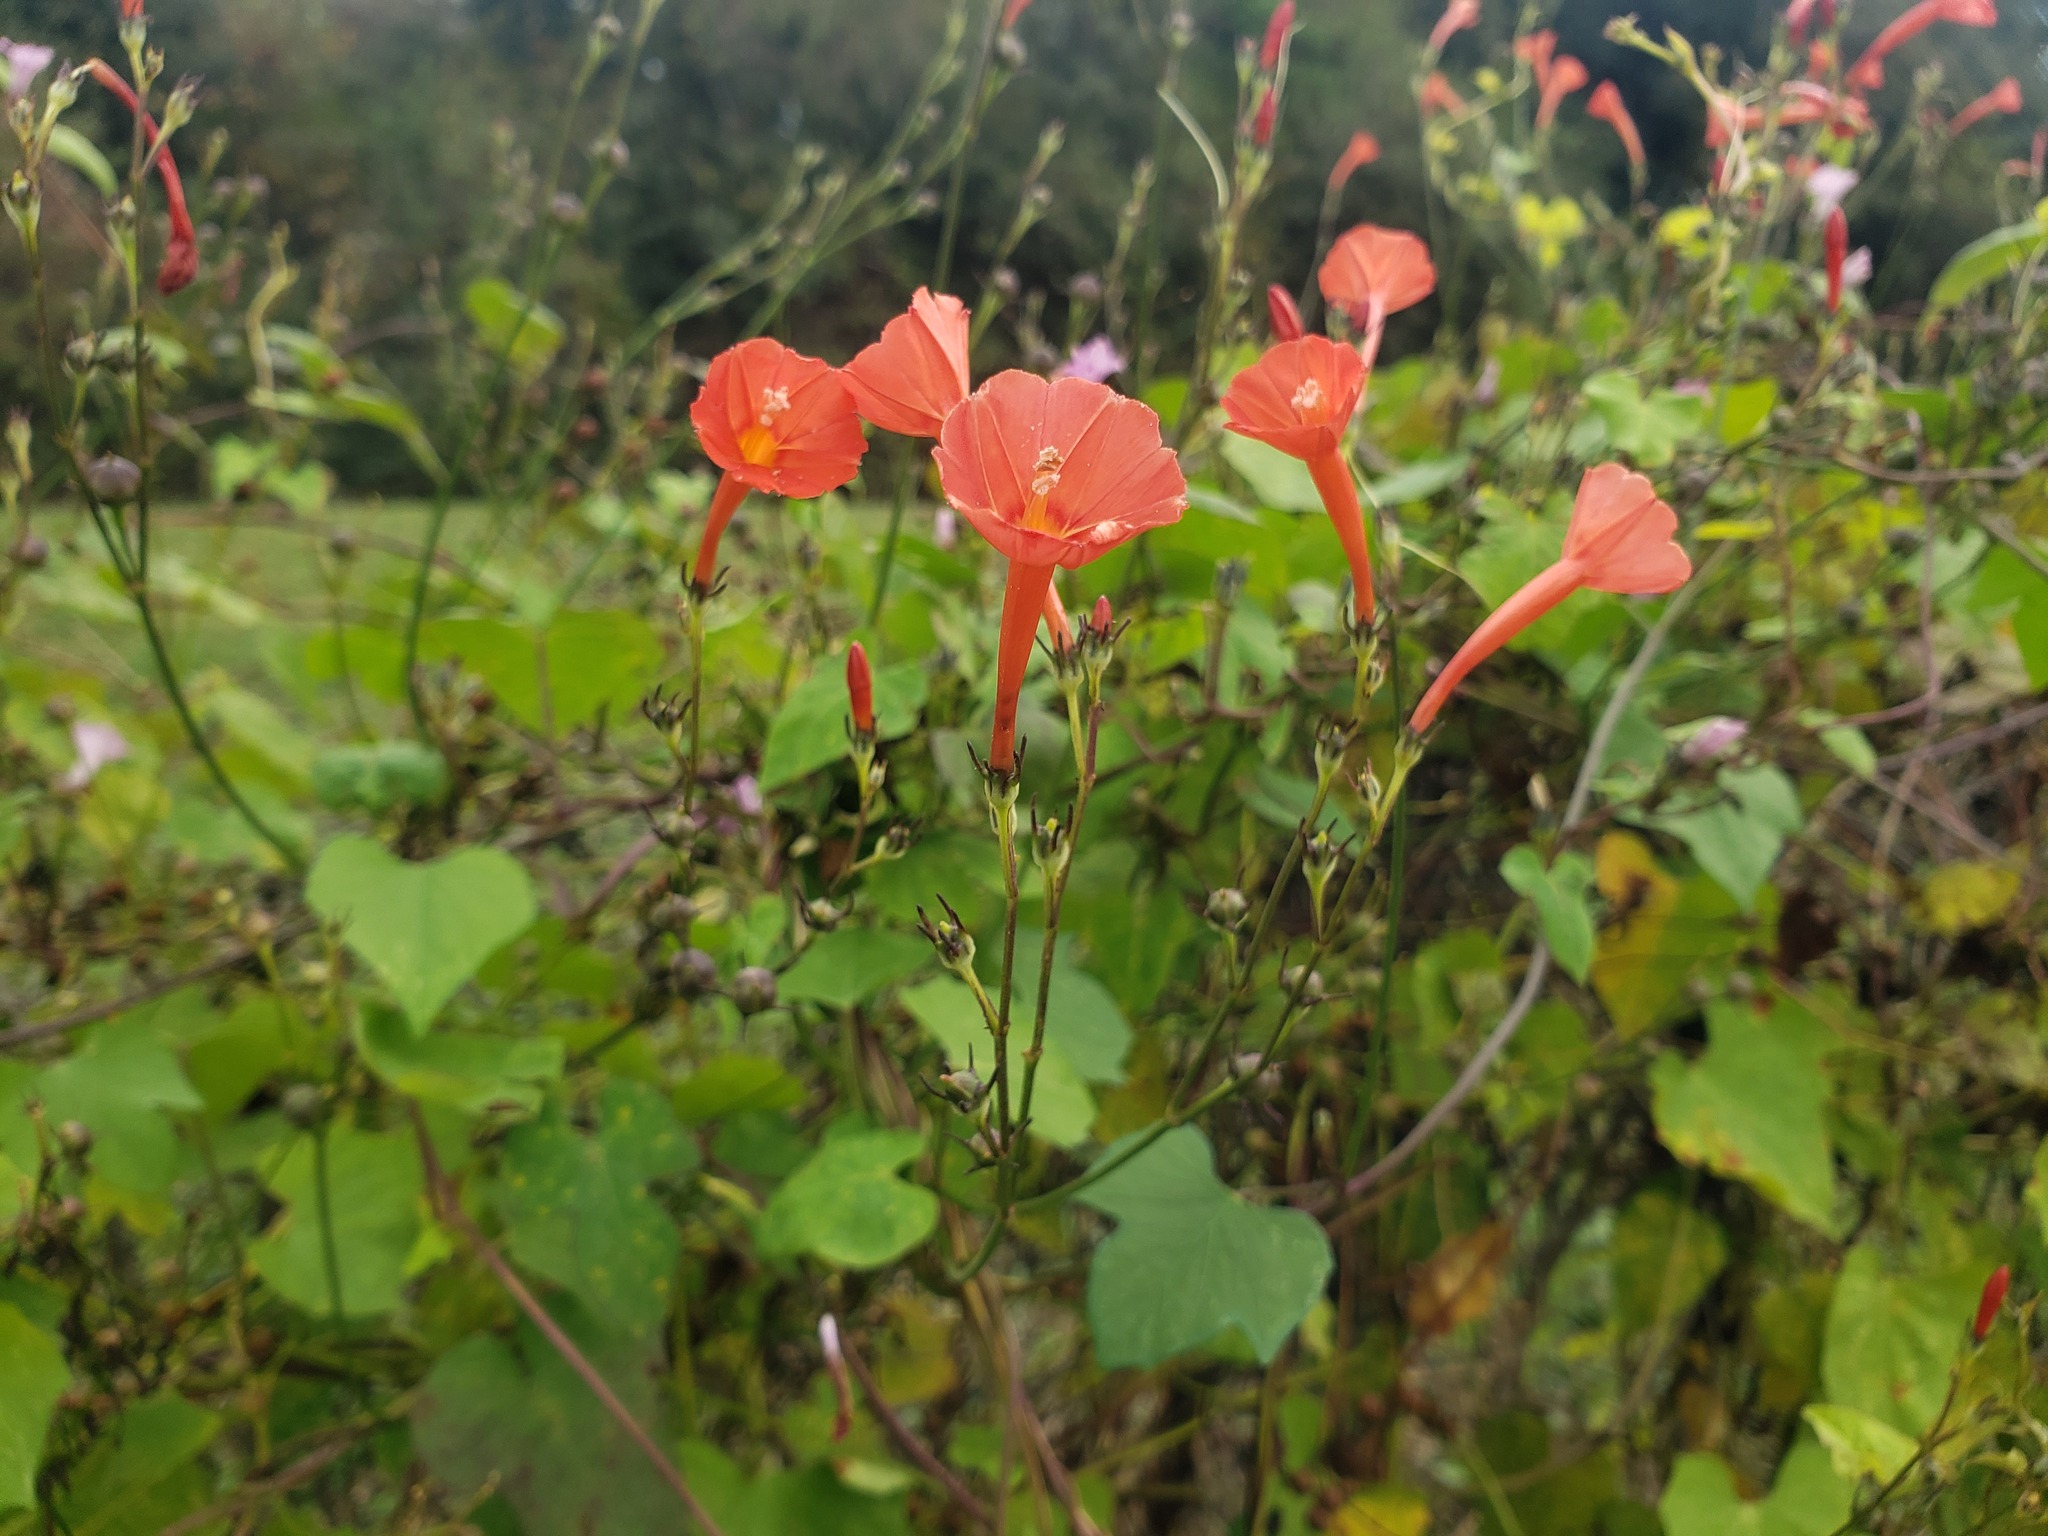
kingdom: Plantae
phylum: Tracheophyta
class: Magnoliopsida
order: Solanales
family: Convolvulaceae
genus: Ipomoea
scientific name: Ipomoea hederifolia
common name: Ivy-leaf morning-glory
